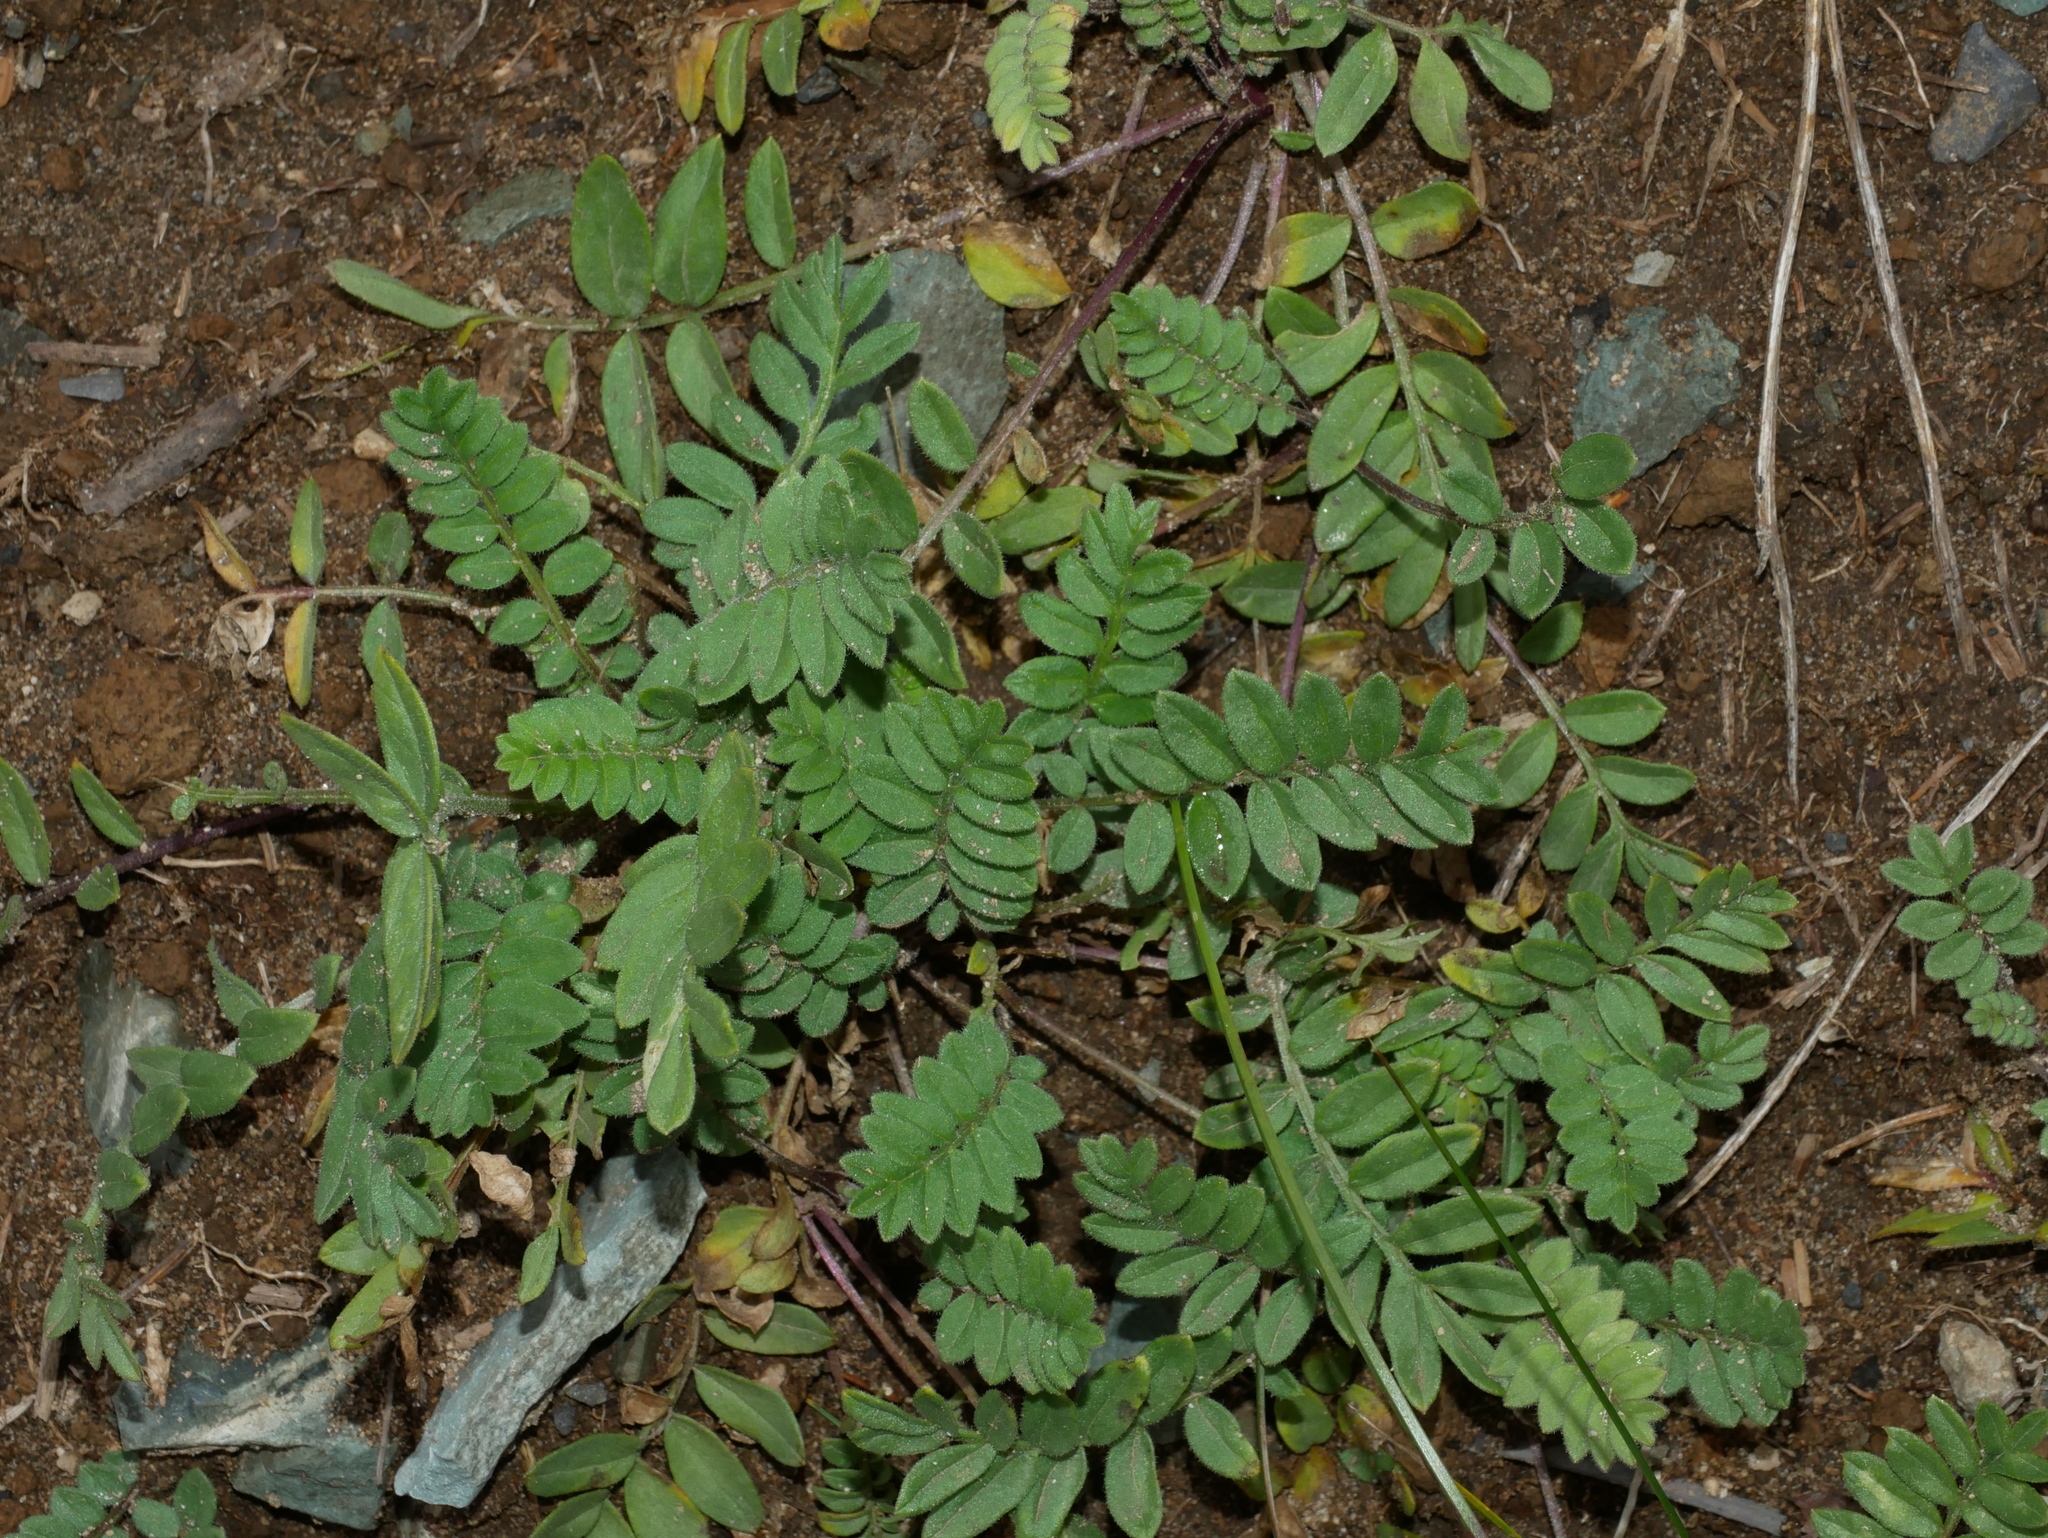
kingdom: Plantae
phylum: Tracheophyta
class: Magnoliopsida
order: Ericales
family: Polemoniaceae
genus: Polemonium
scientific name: Polemonium californicum
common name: California jacob's ladder
